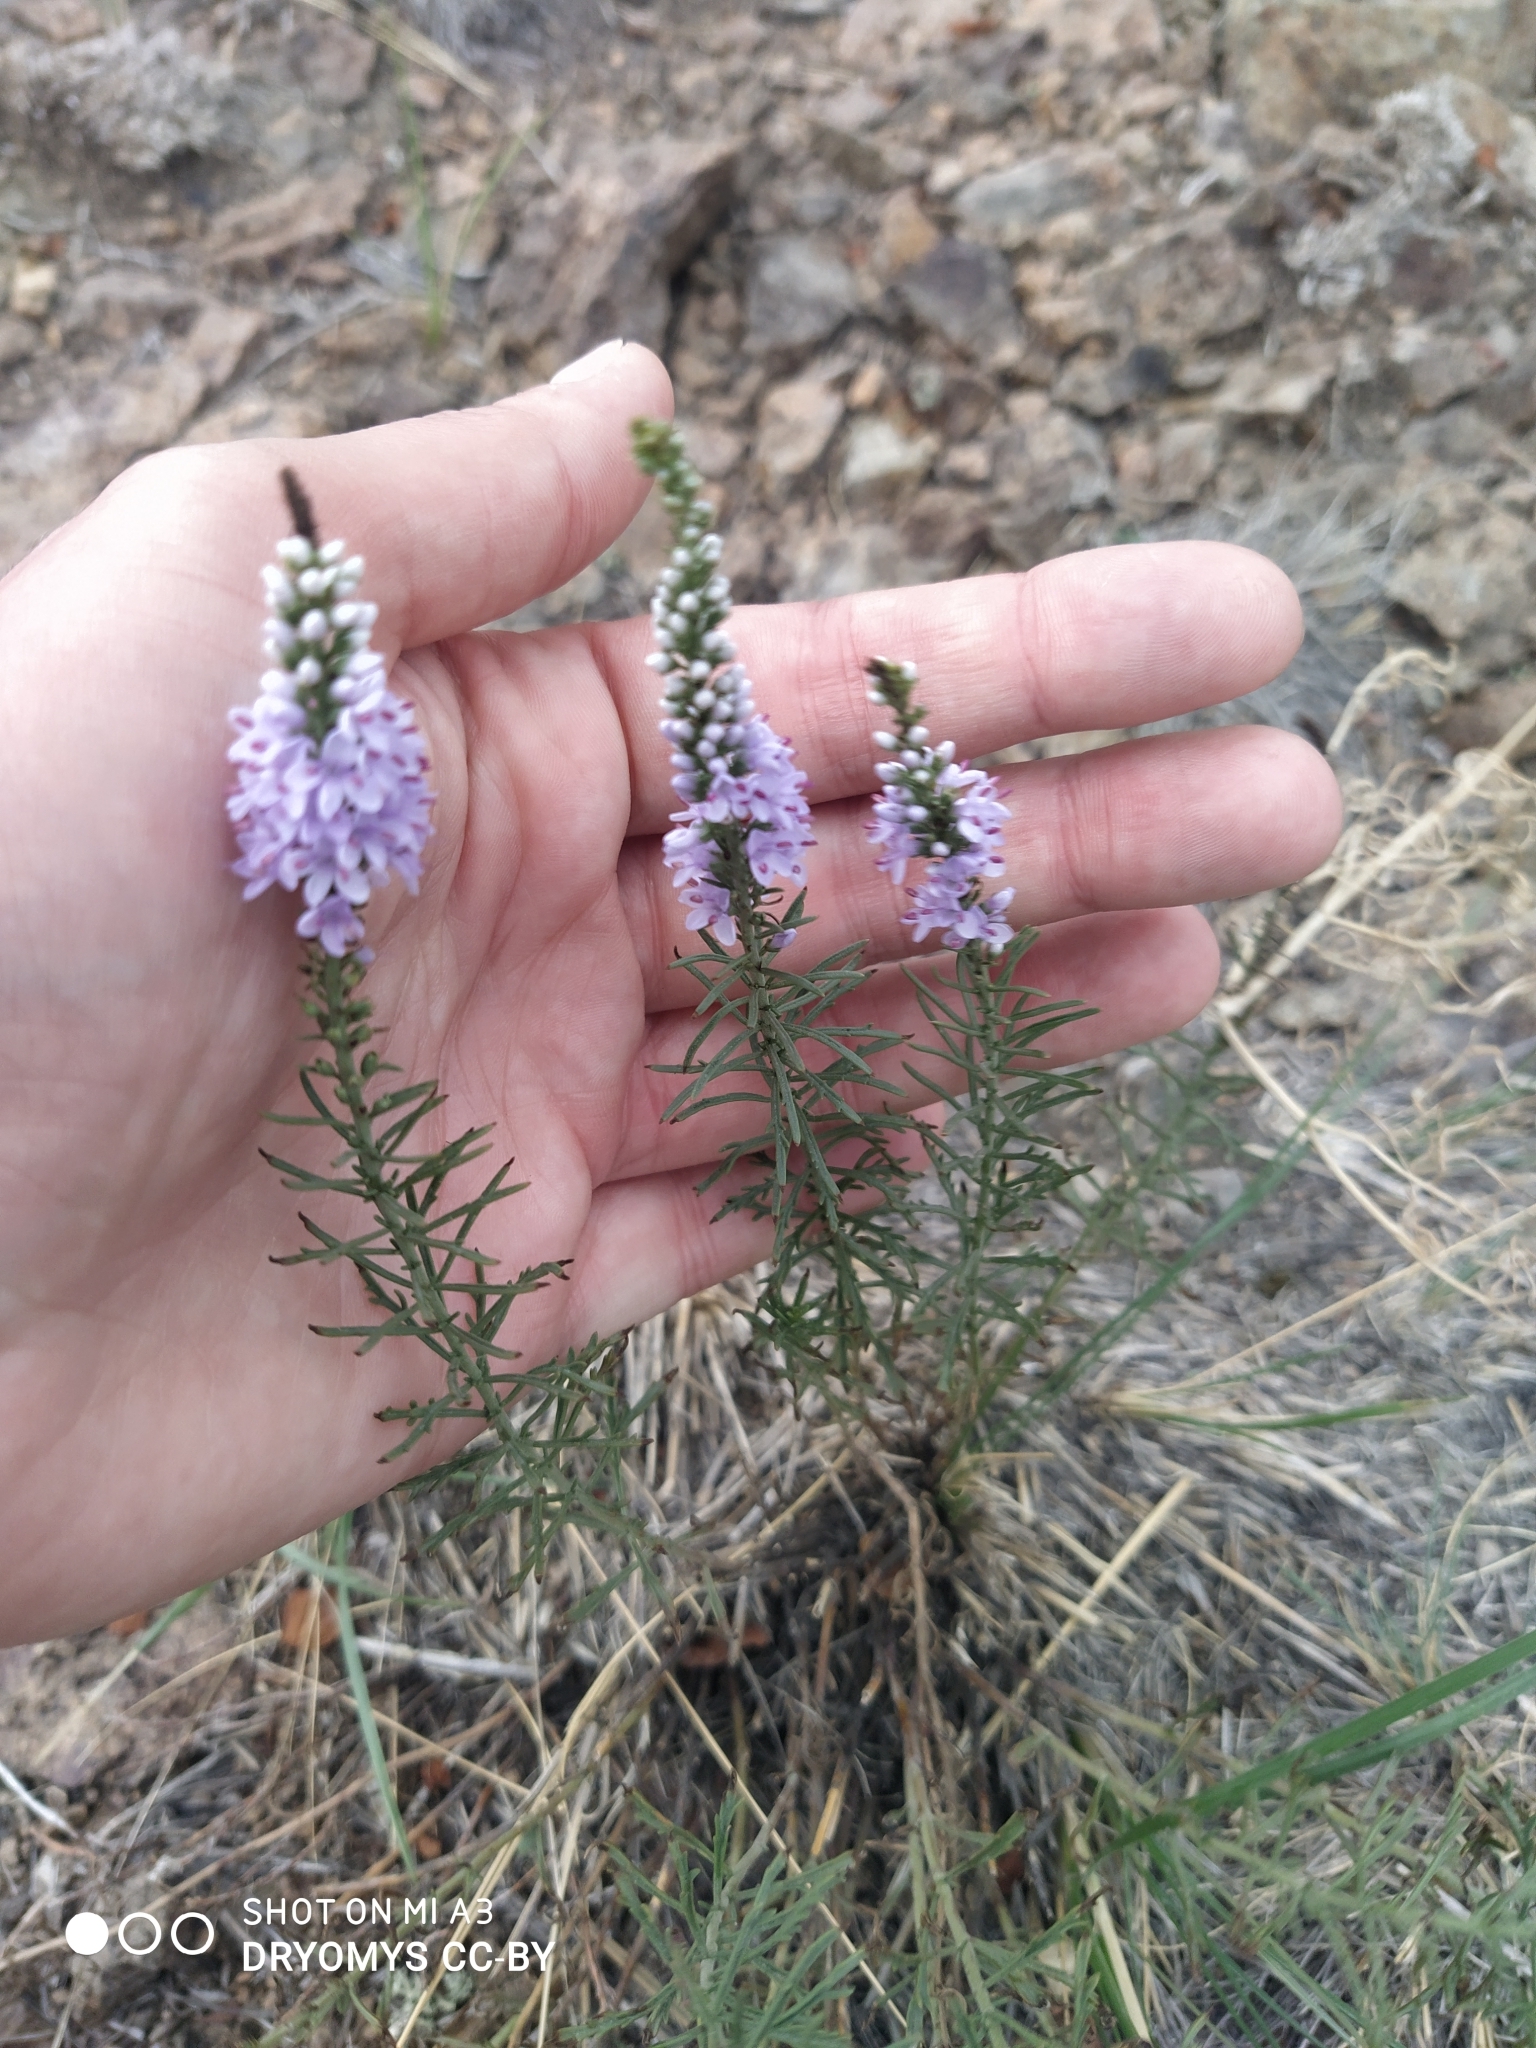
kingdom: Plantae
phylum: Tracheophyta
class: Magnoliopsida
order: Lamiales
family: Plantaginaceae
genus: Veronica
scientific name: Veronica pinnata
